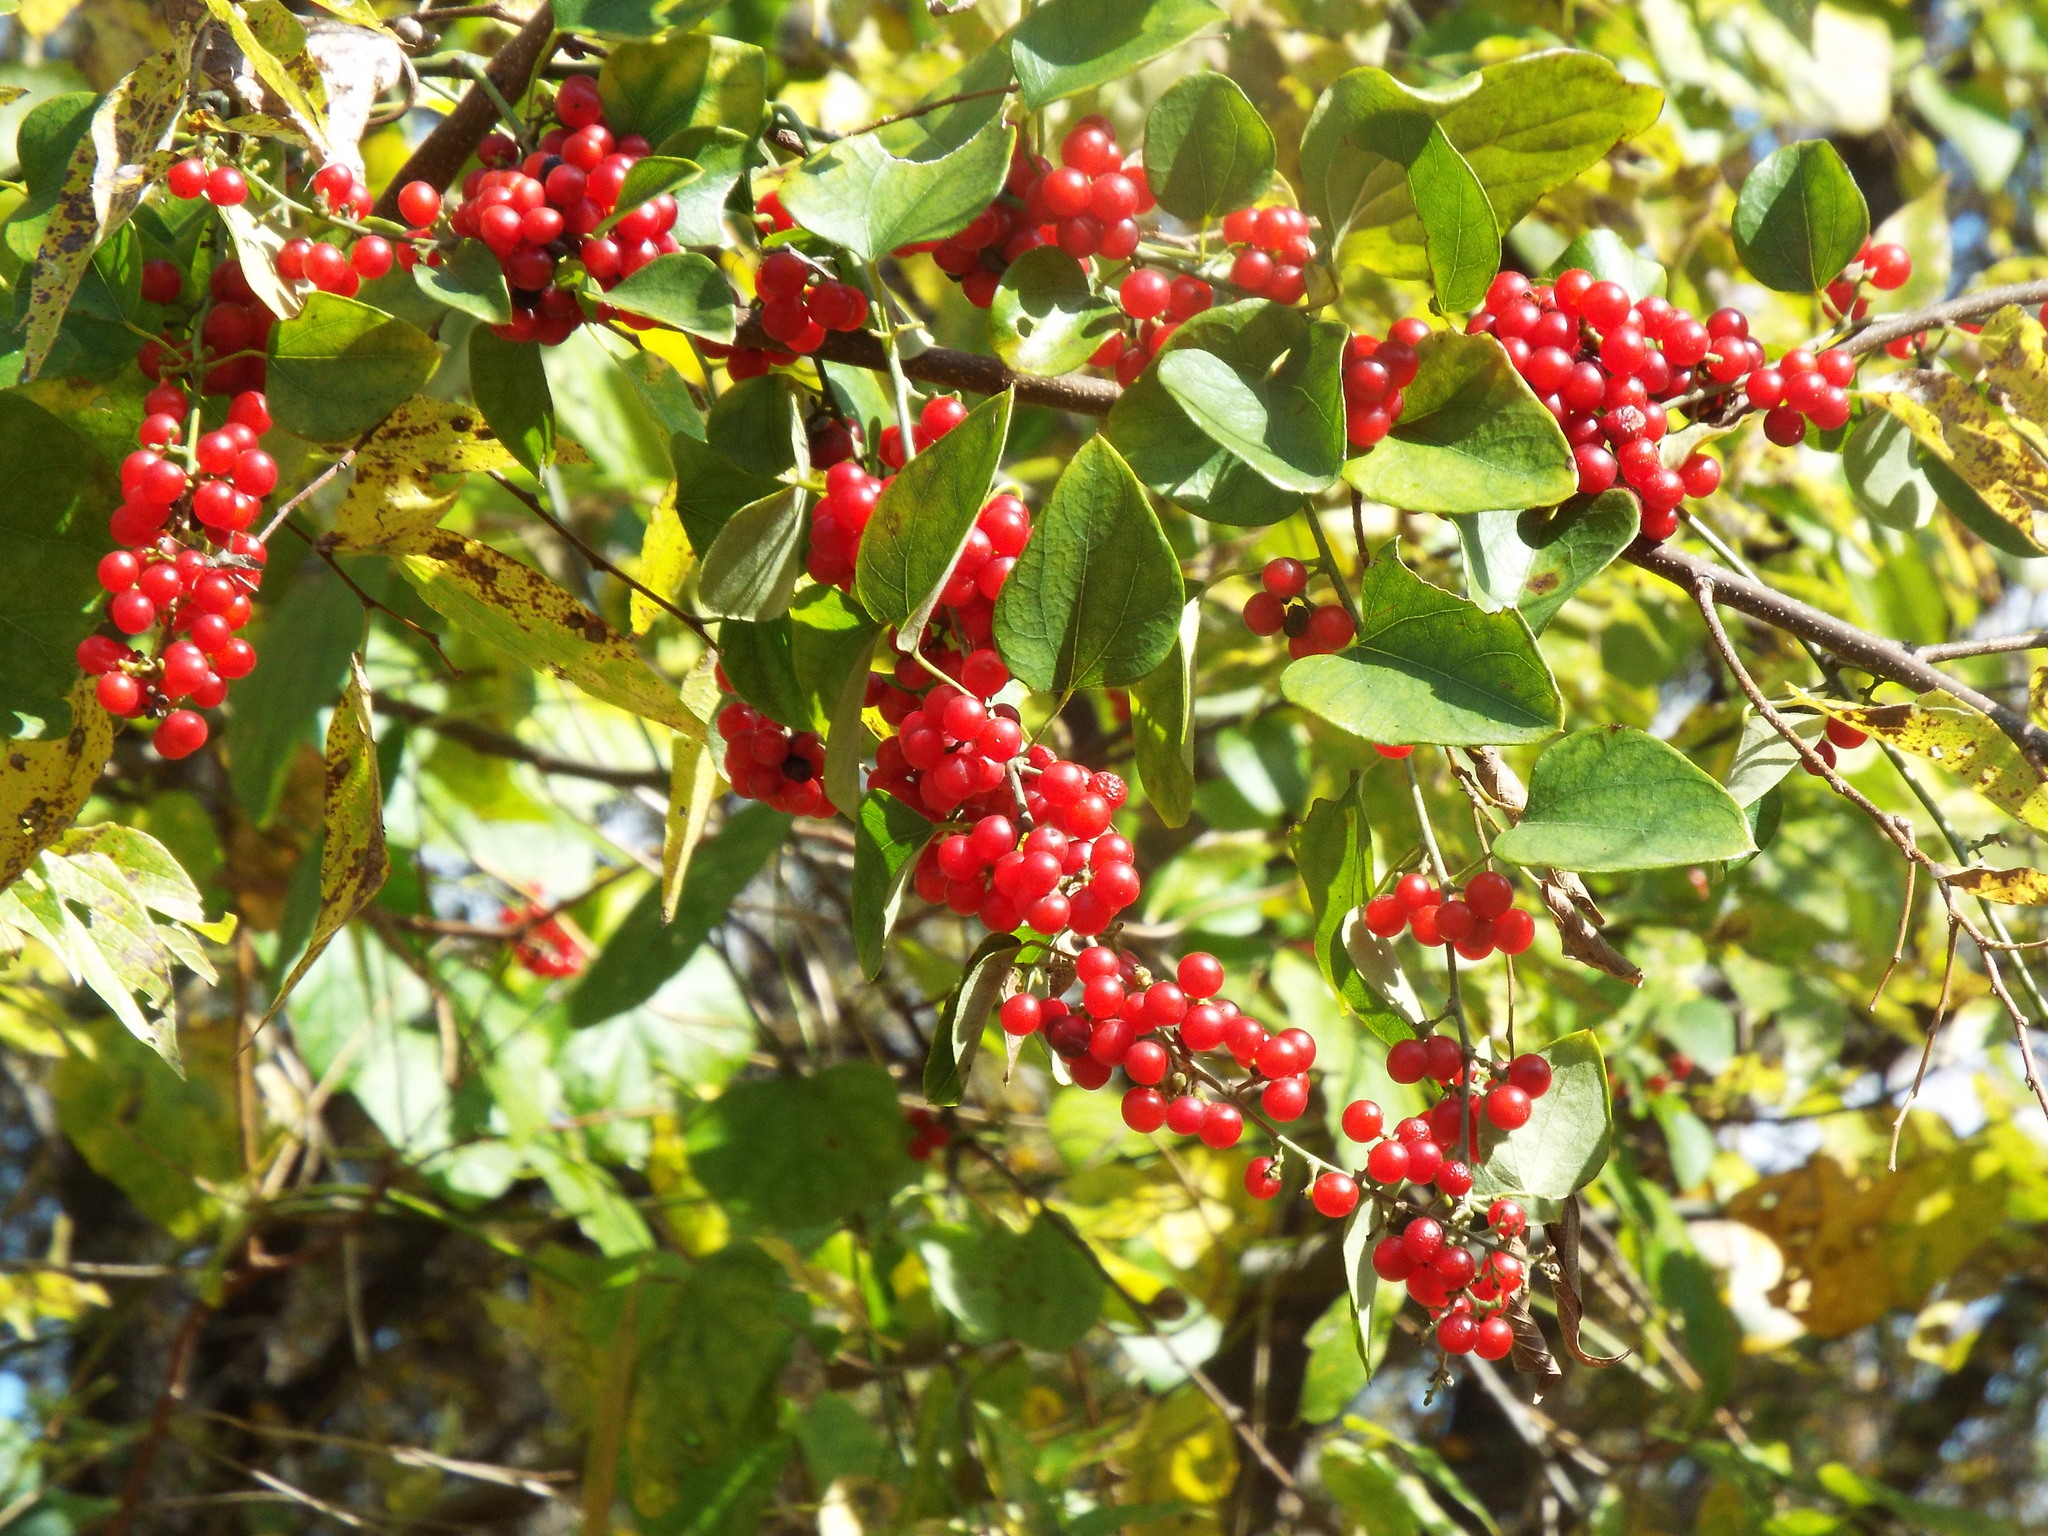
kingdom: Plantae
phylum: Tracheophyta
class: Magnoliopsida
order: Ranunculales
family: Menispermaceae
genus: Cocculus
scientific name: Cocculus carolinus
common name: Carolina moonseed
